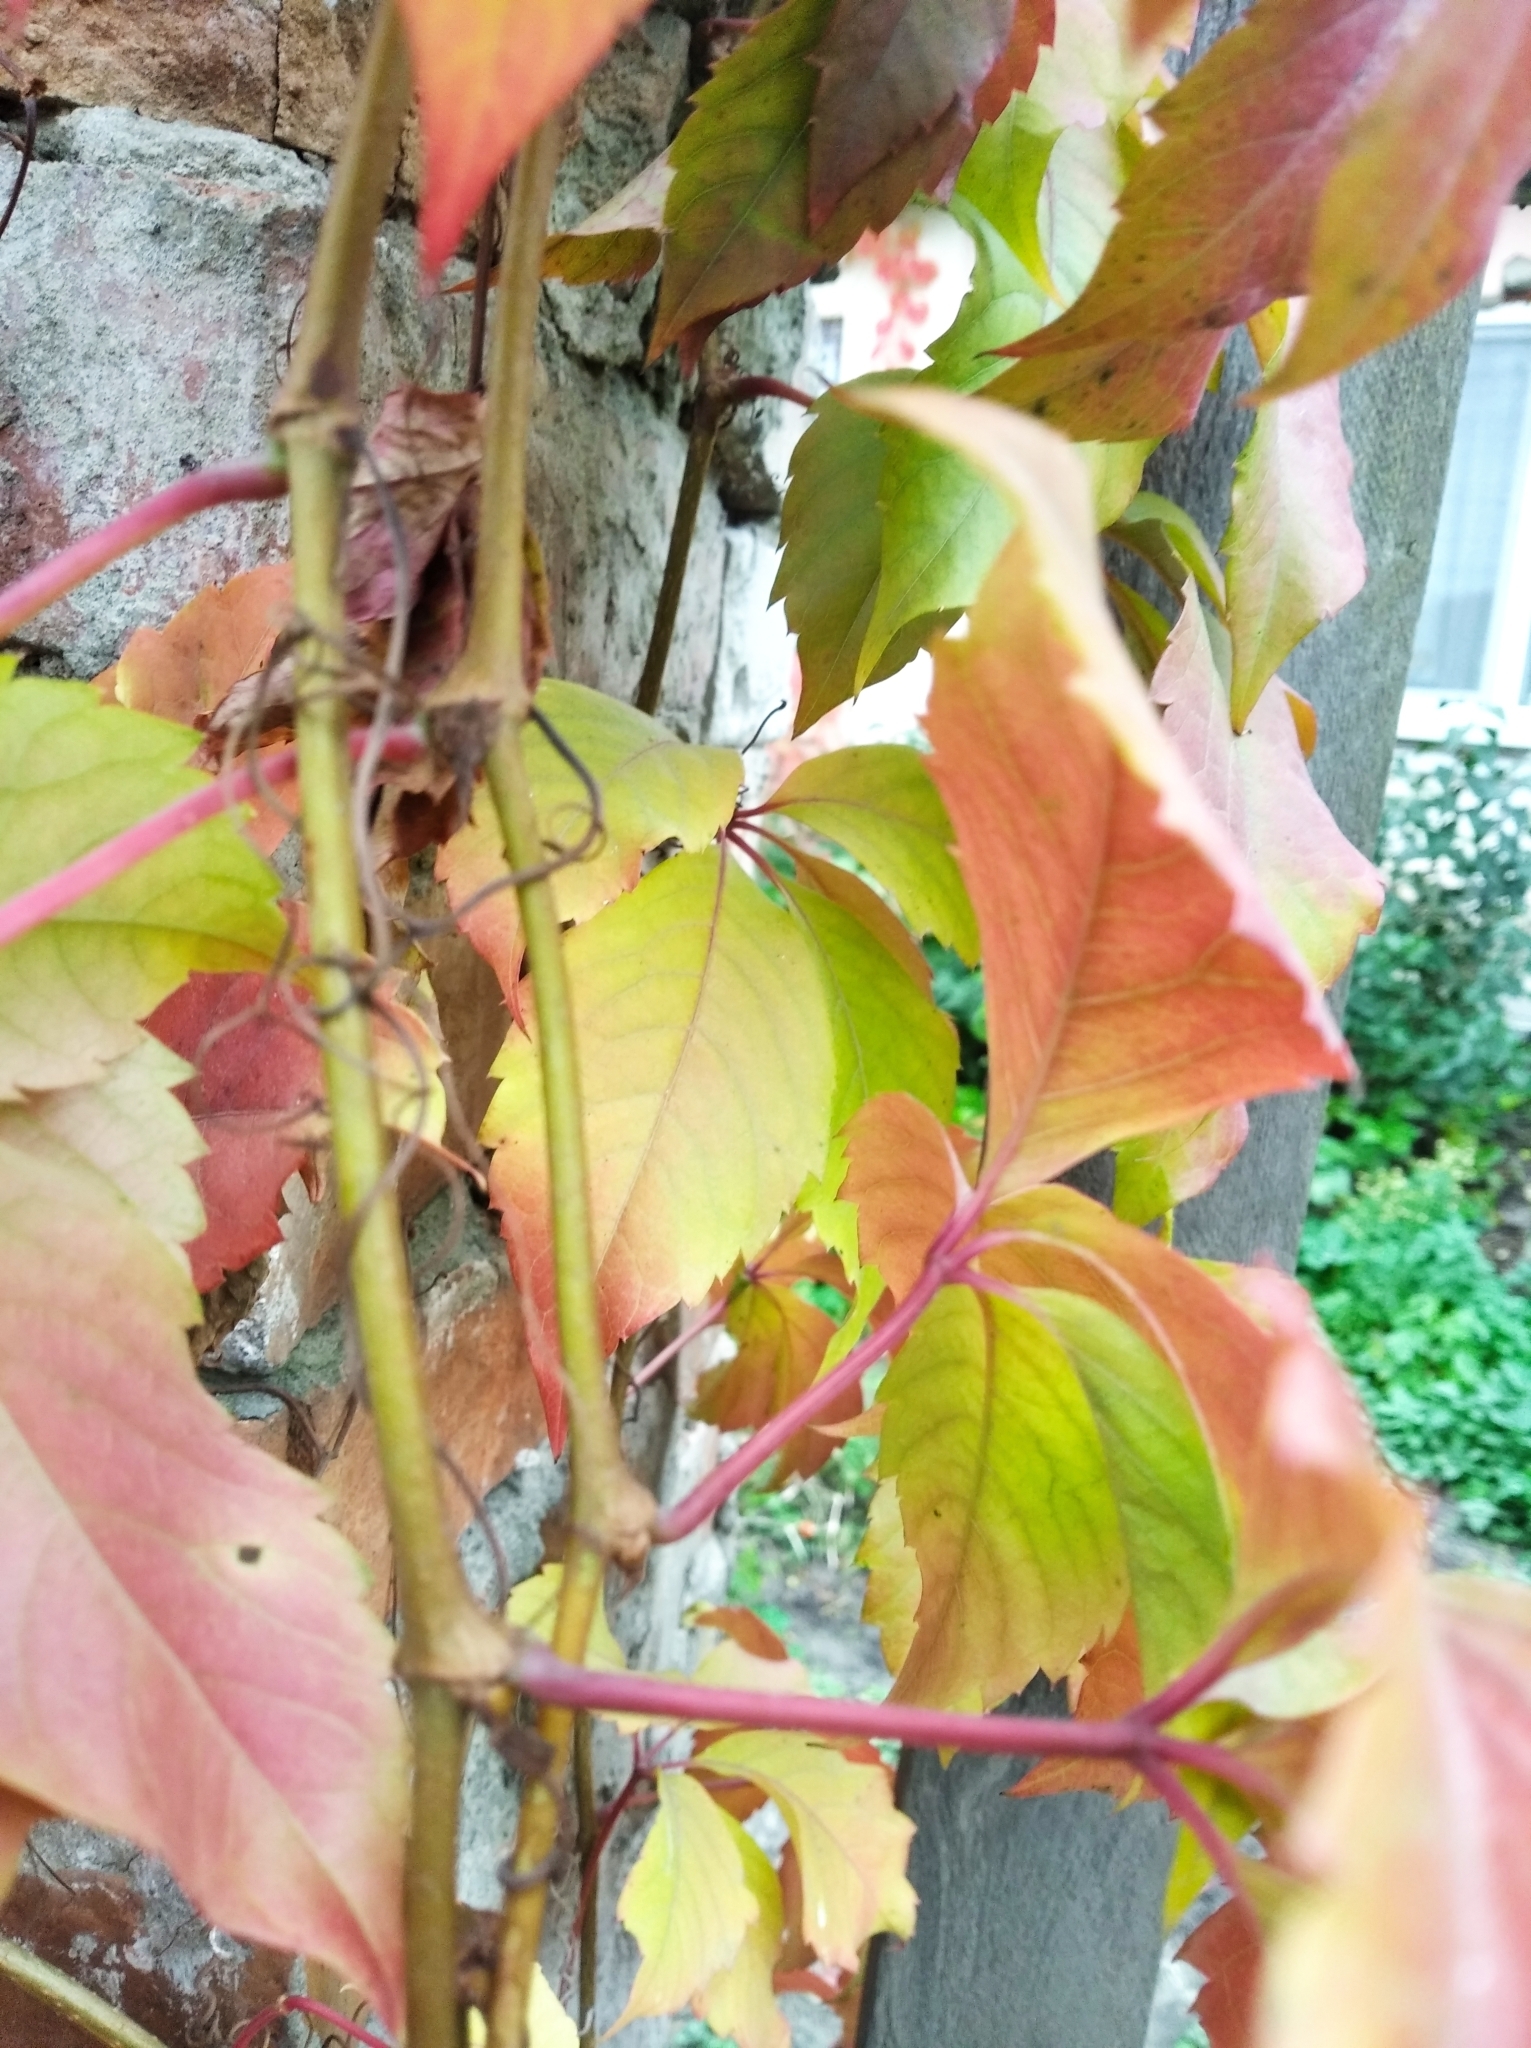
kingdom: Plantae
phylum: Tracheophyta
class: Magnoliopsida
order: Vitales
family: Vitaceae
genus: Parthenocissus
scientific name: Parthenocissus quinquefolia
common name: Virginia-creeper
